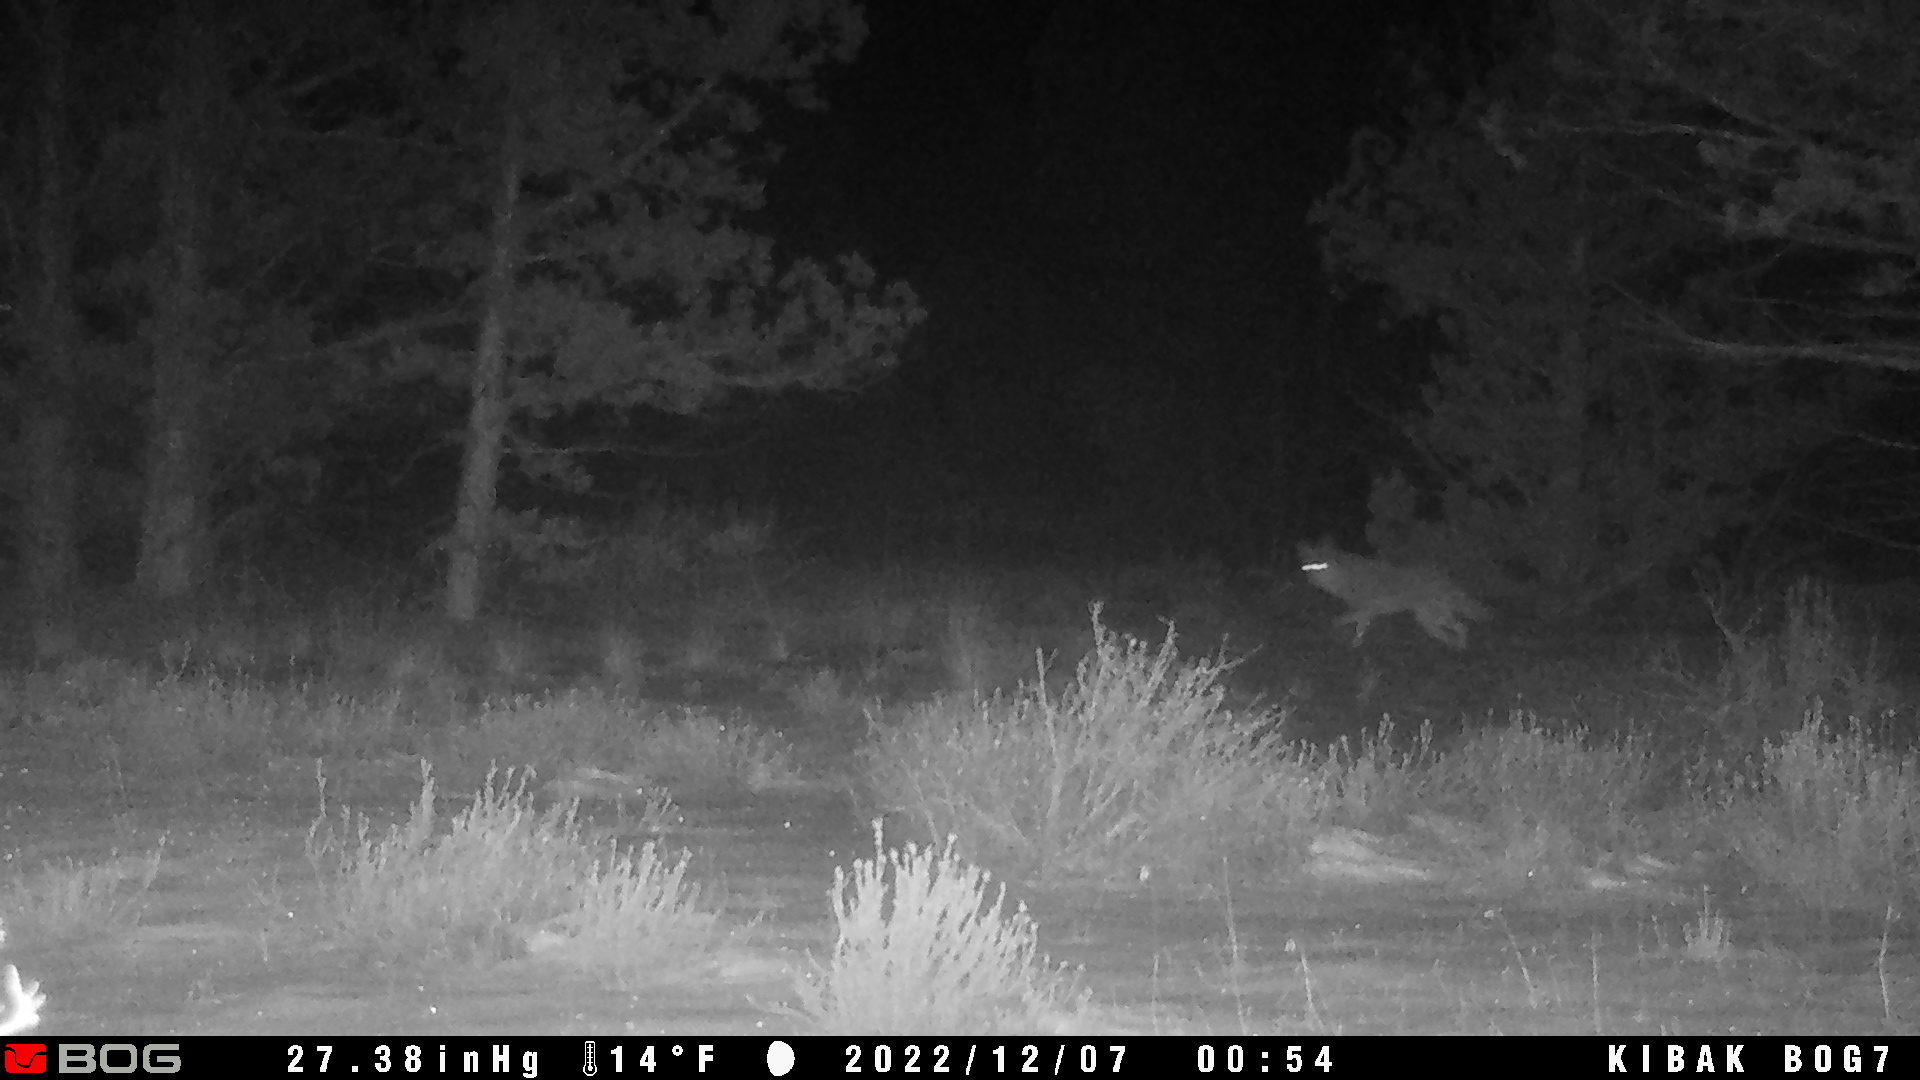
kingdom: Animalia
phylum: Chordata
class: Mammalia
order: Carnivora
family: Canidae
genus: Canis
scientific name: Canis latrans
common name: Coyote
